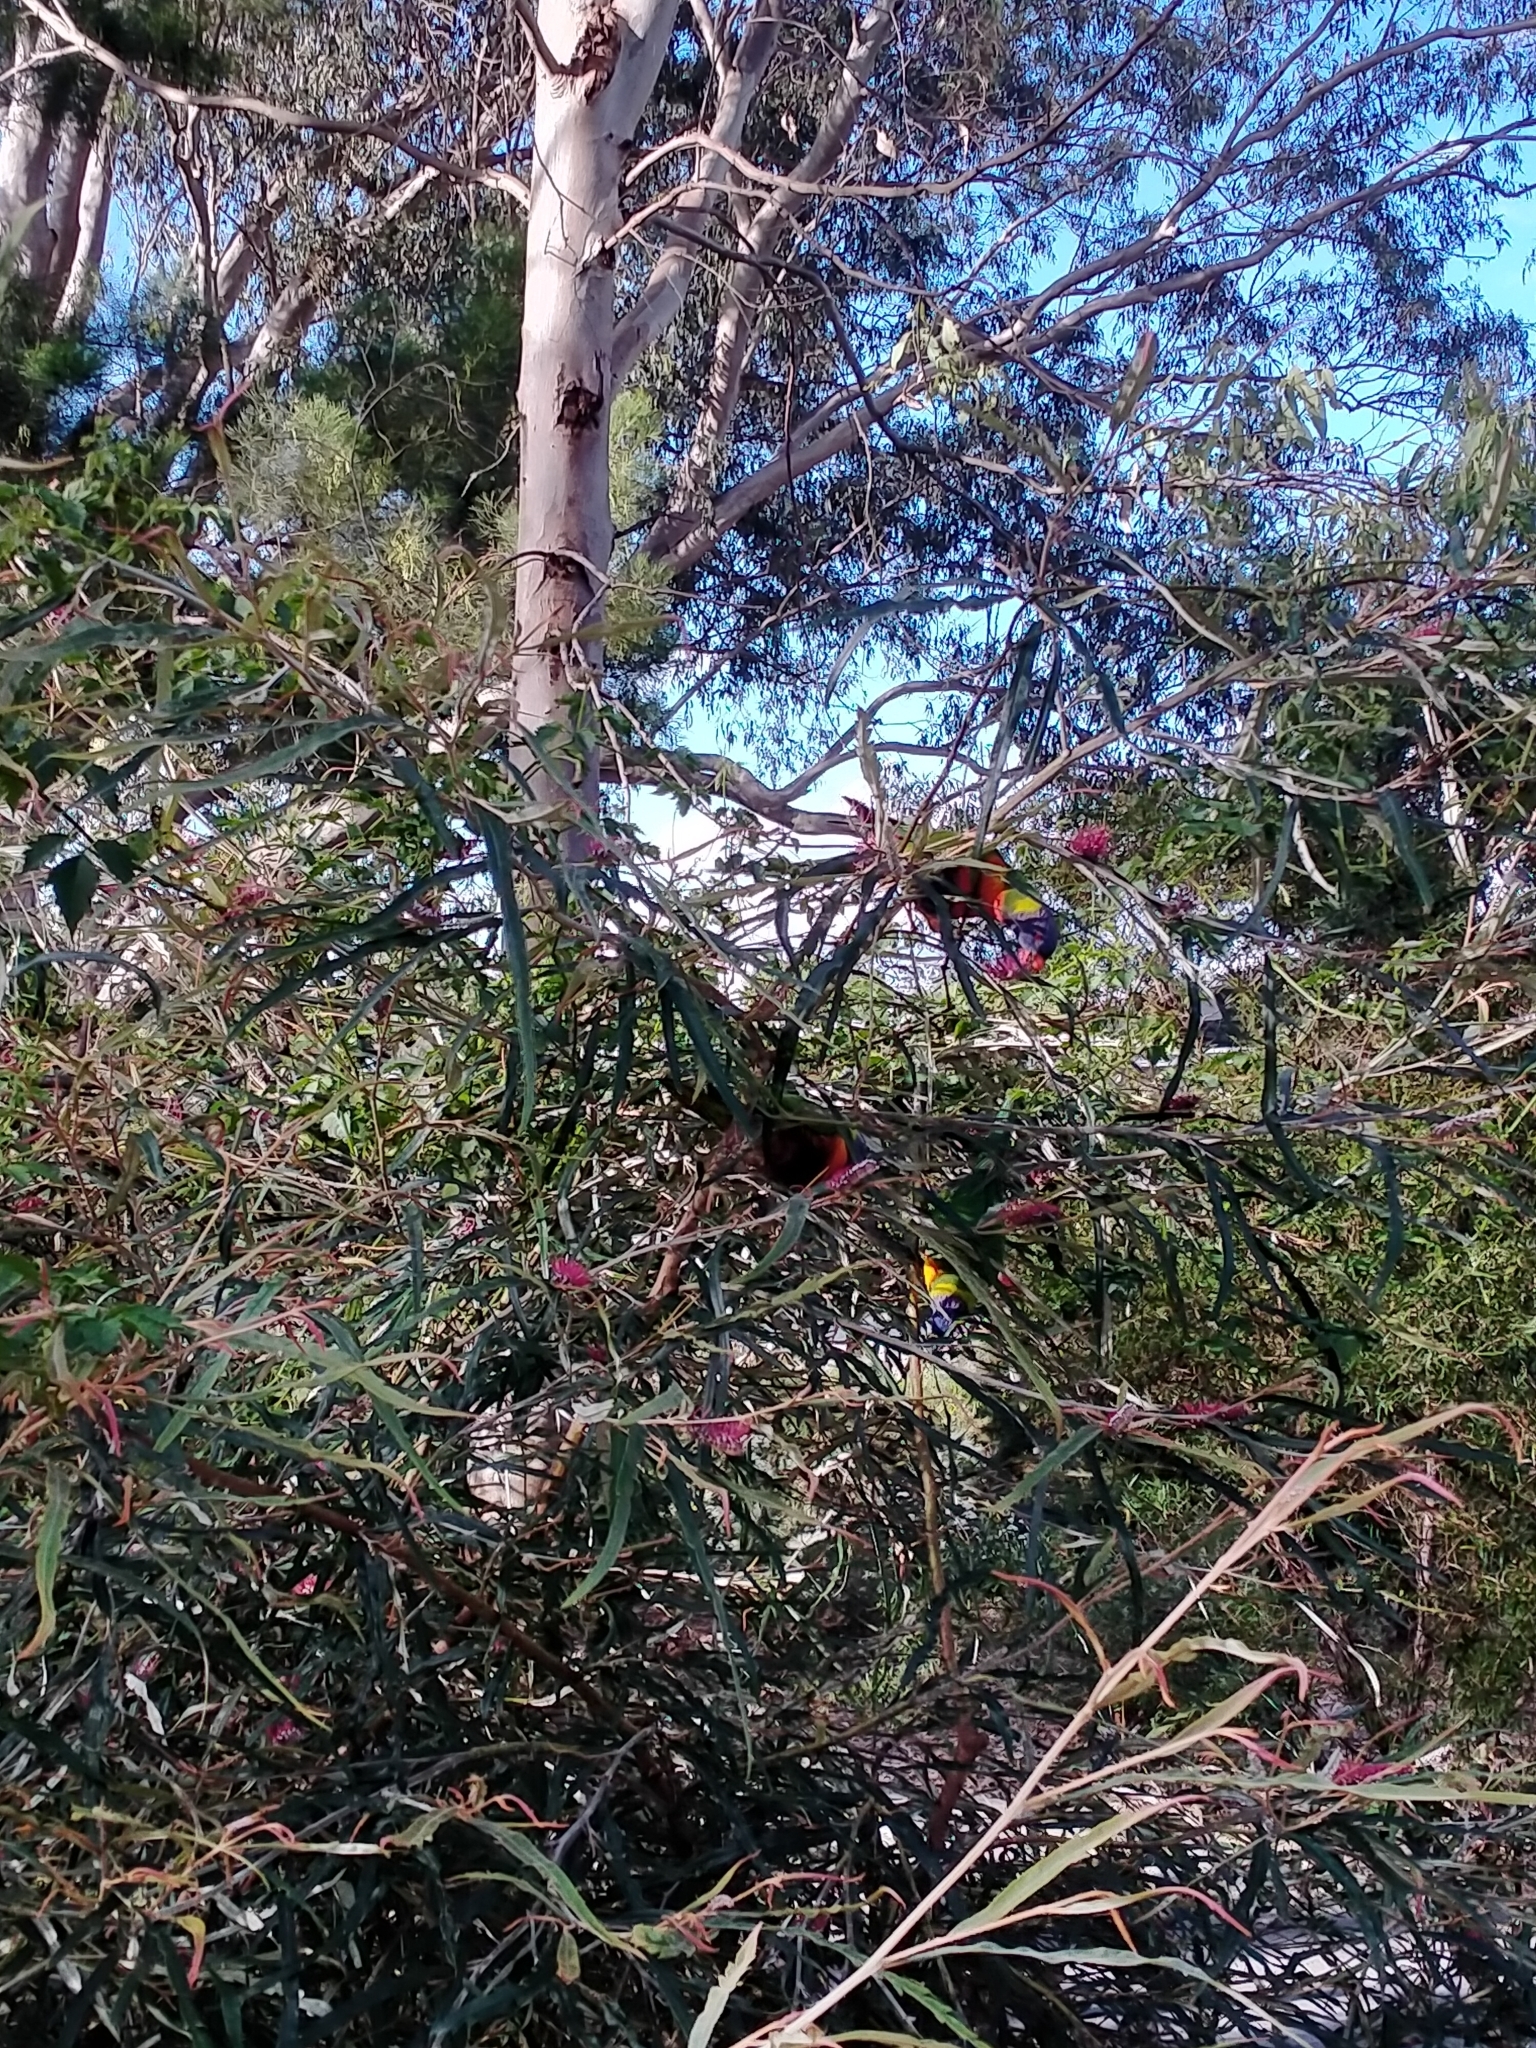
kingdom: Animalia
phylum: Chordata
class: Aves
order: Psittaciformes
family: Psittacidae
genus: Trichoglossus
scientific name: Trichoglossus haematodus
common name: Coconut lorikeet
